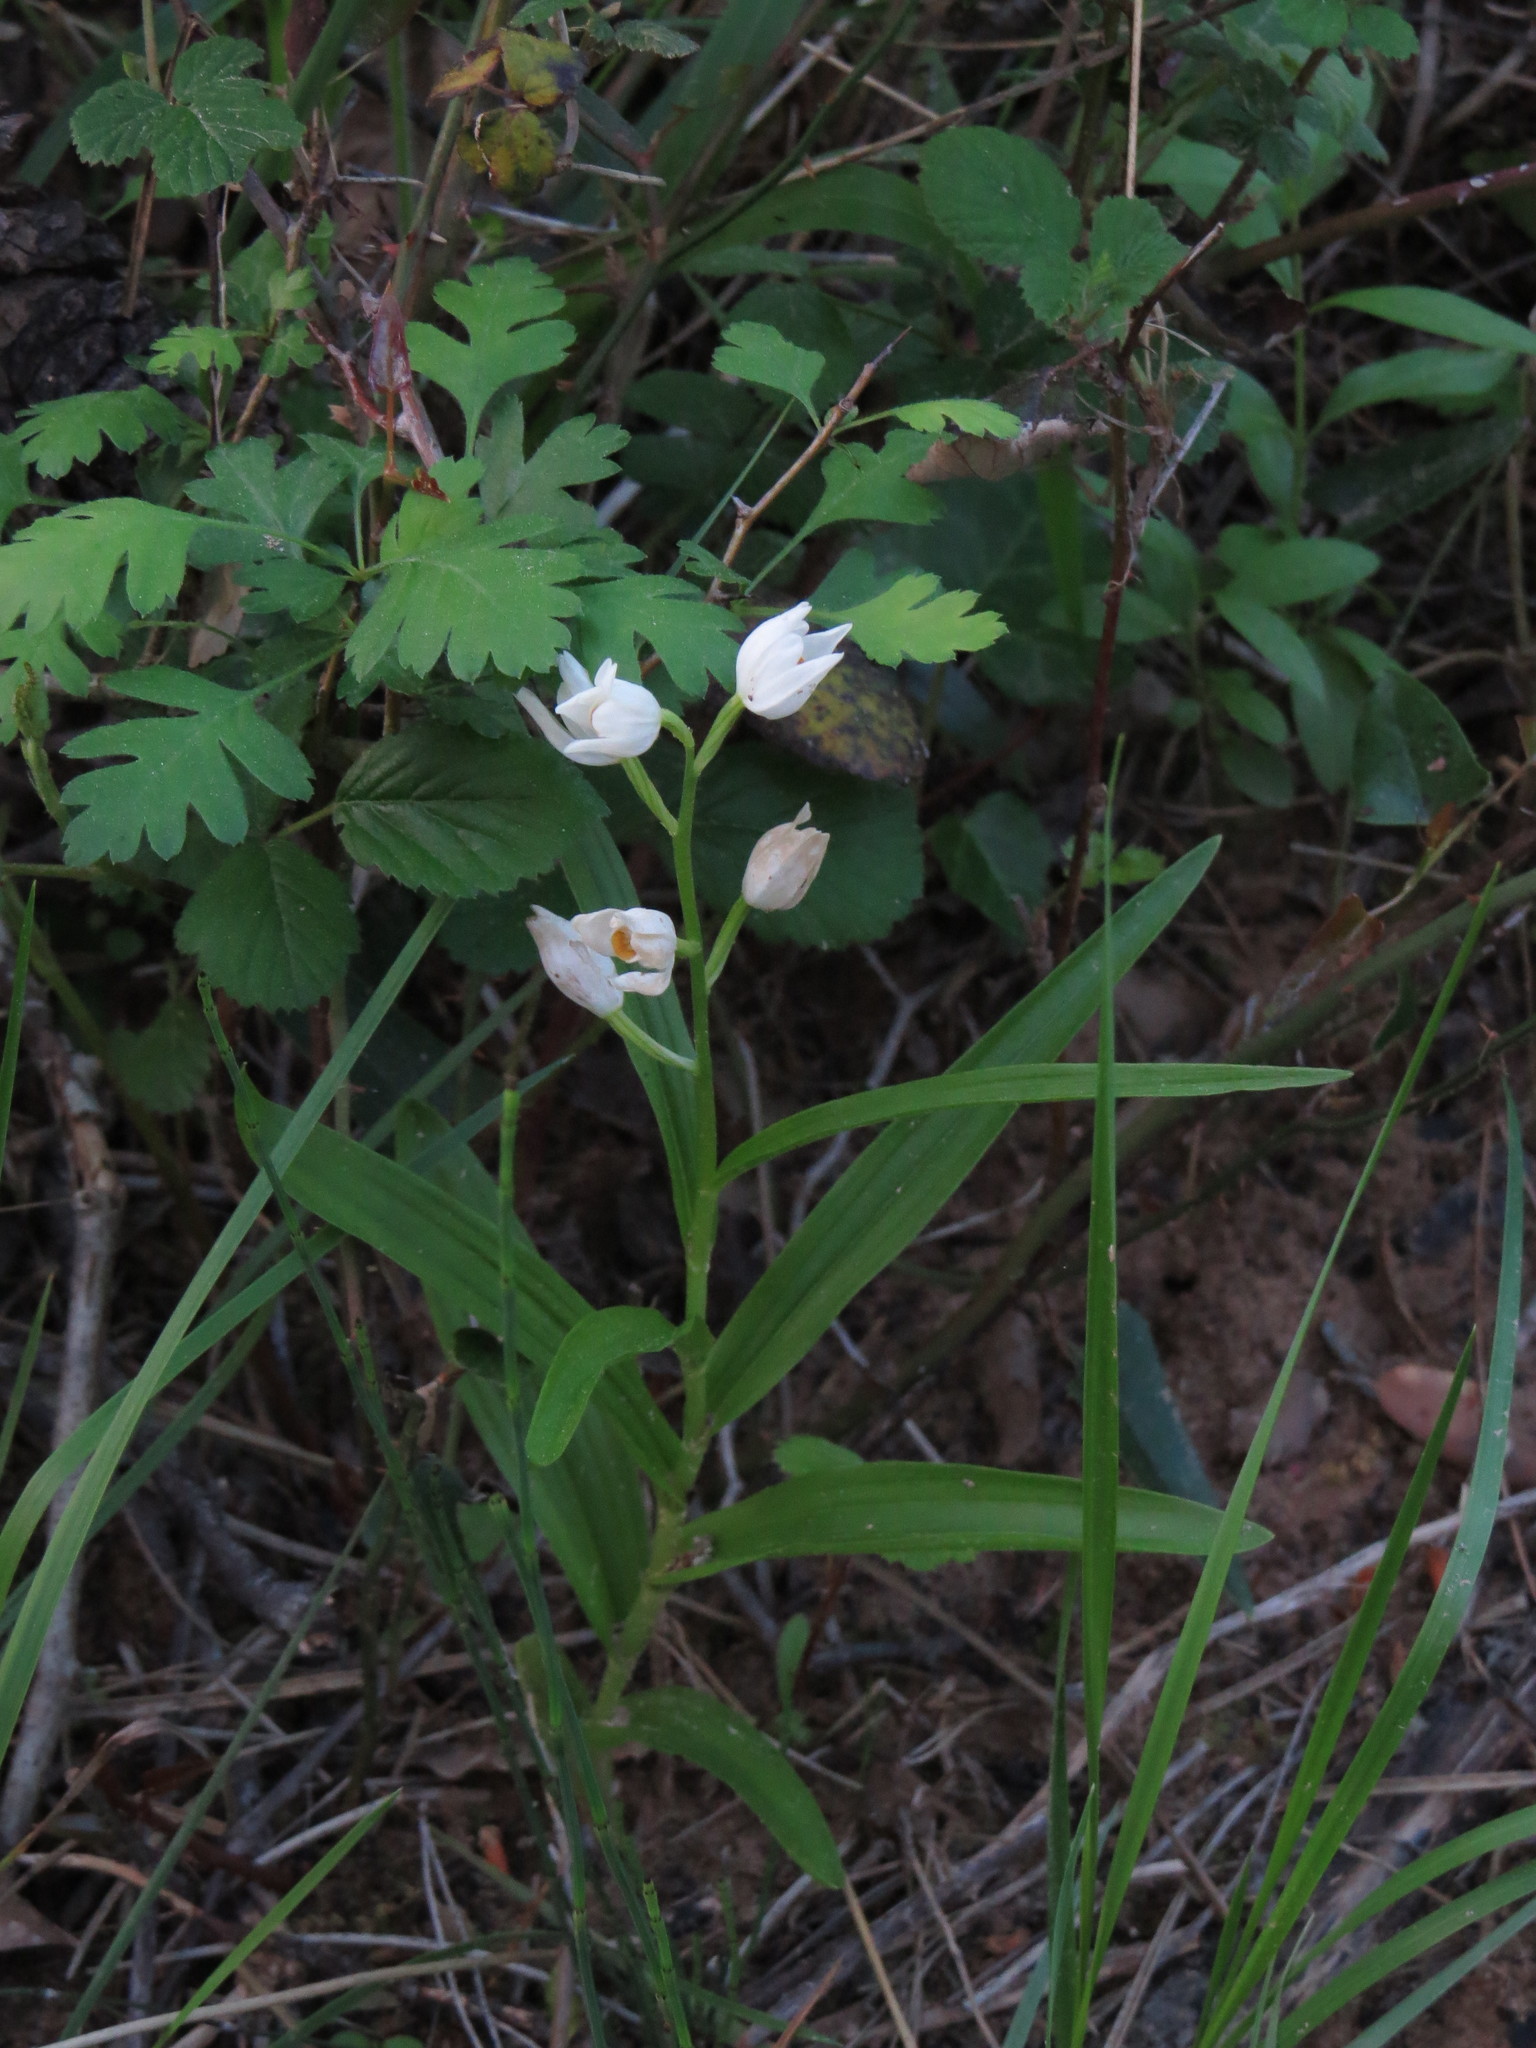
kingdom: Plantae
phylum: Tracheophyta
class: Liliopsida
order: Asparagales
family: Orchidaceae
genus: Cephalanthera
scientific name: Cephalanthera longifolia
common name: Narrow-leaved helleborine
